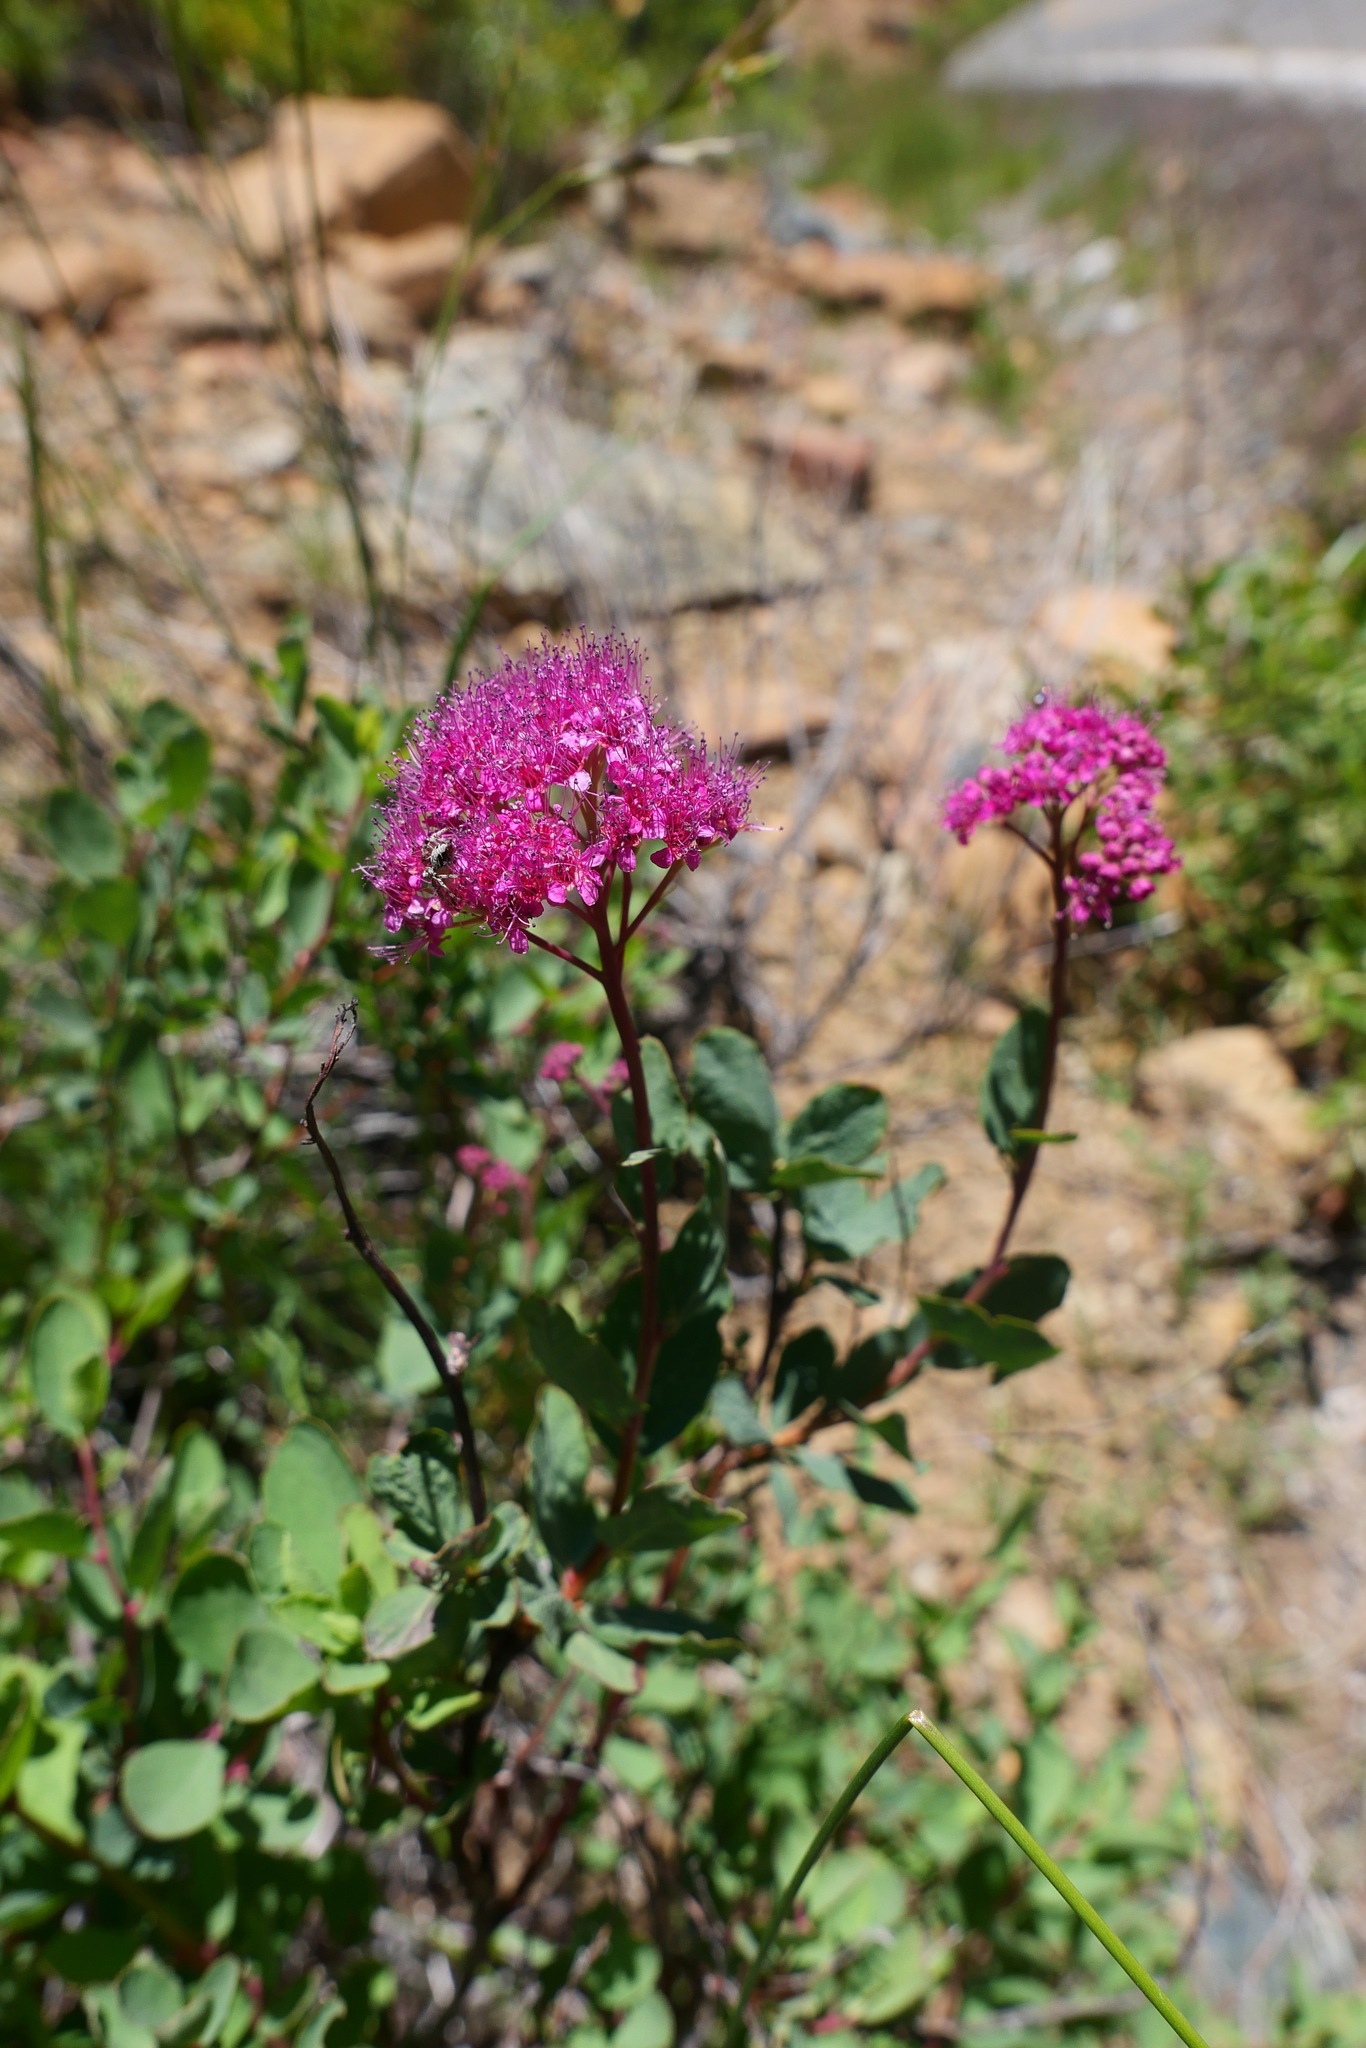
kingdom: Plantae
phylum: Tracheophyta
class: Magnoliopsida
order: Rosales
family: Rosaceae
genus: Spiraea
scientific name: Spiraea splendens
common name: Subalpine meadowsweet
